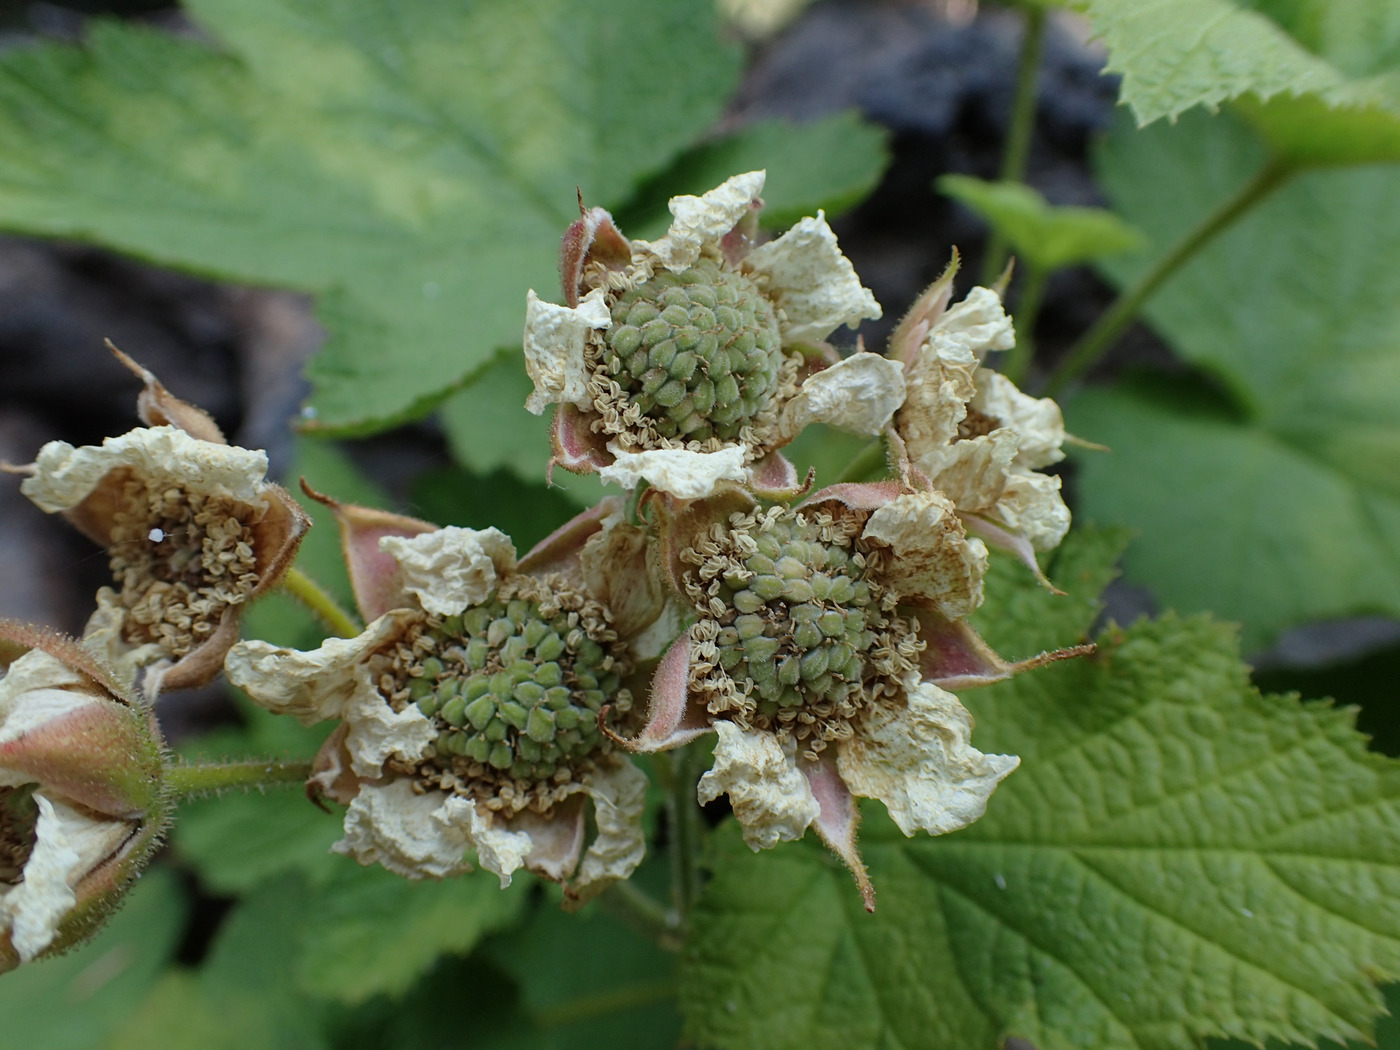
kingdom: Plantae
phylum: Tracheophyta
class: Magnoliopsida
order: Rosales
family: Rosaceae
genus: Rubus
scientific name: Rubus parviflorus
